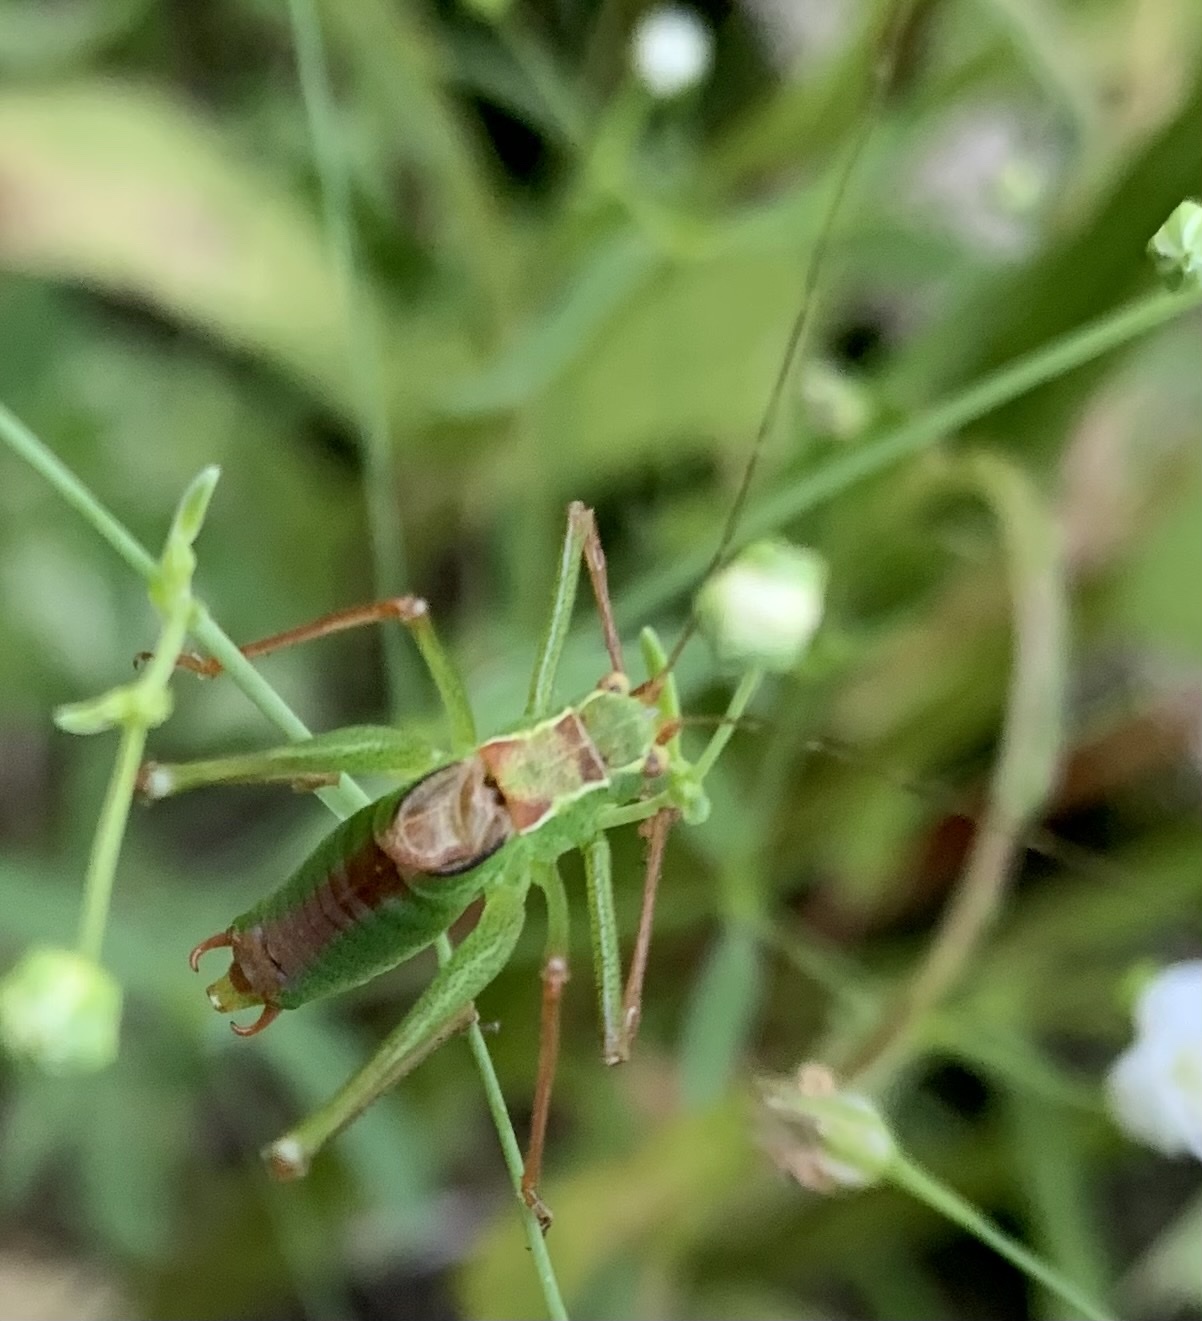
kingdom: Animalia
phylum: Arthropoda
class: Insecta
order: Orthoptera
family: Tettigoniidae
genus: Leptophyes
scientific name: Leptophyes punctatissima
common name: Speckled bush-cricket
